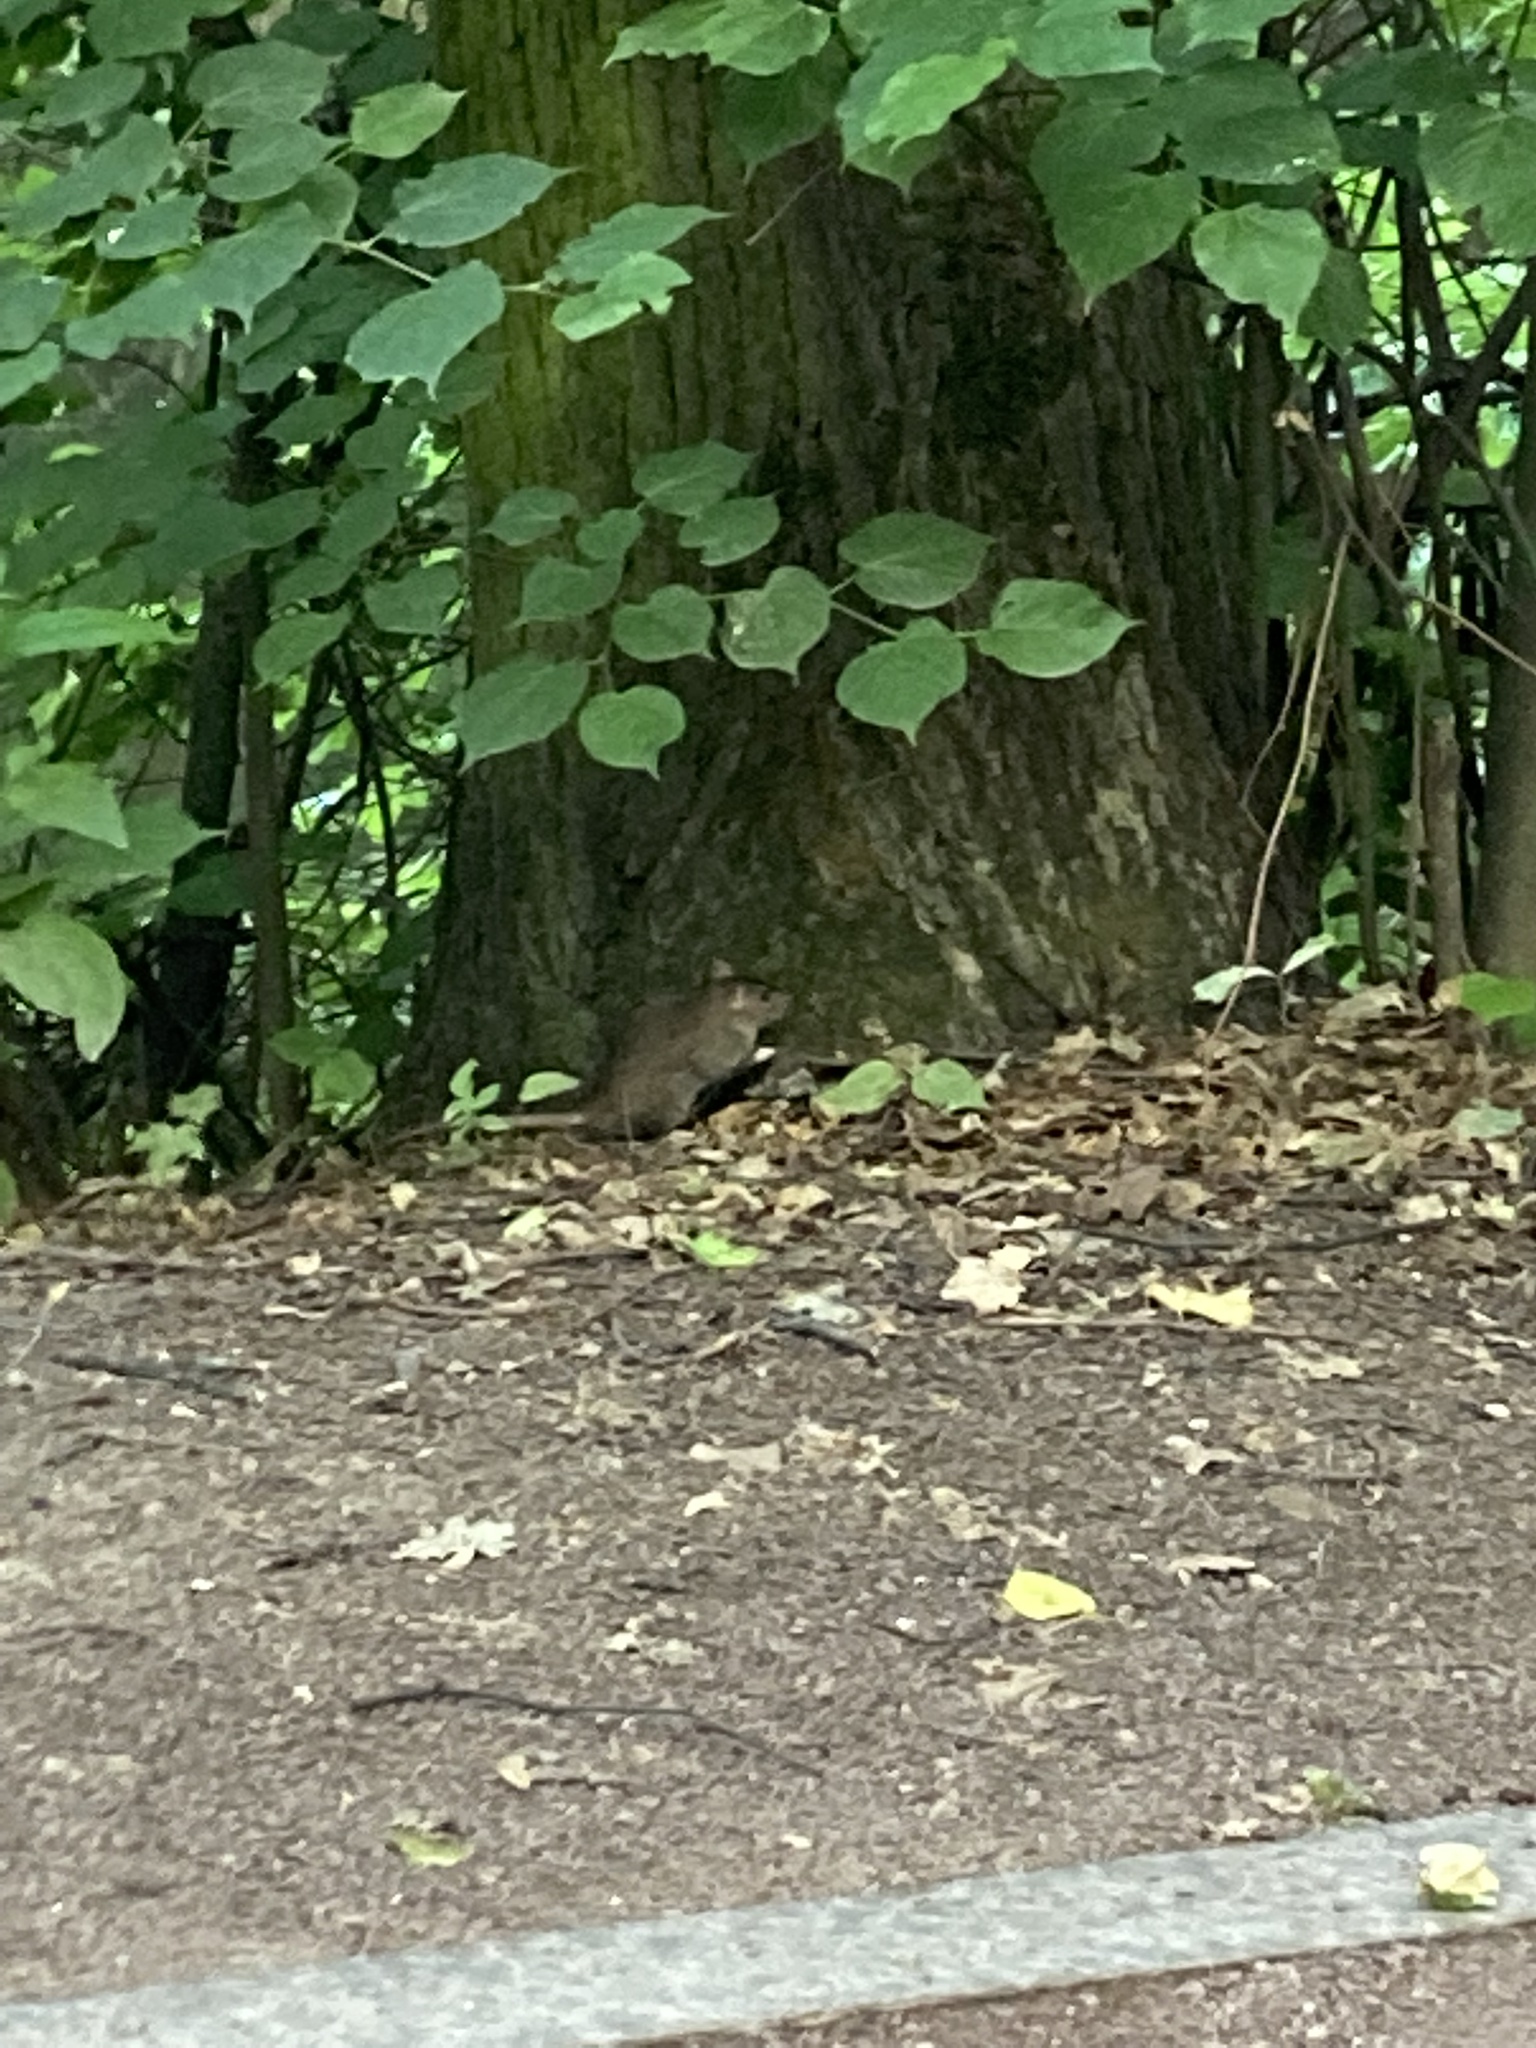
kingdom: Animalia
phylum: Chordata
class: Mammalia
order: Rodentia
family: Muridae
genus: Rattus
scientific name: Rattus norvegicus
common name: Brown rat
